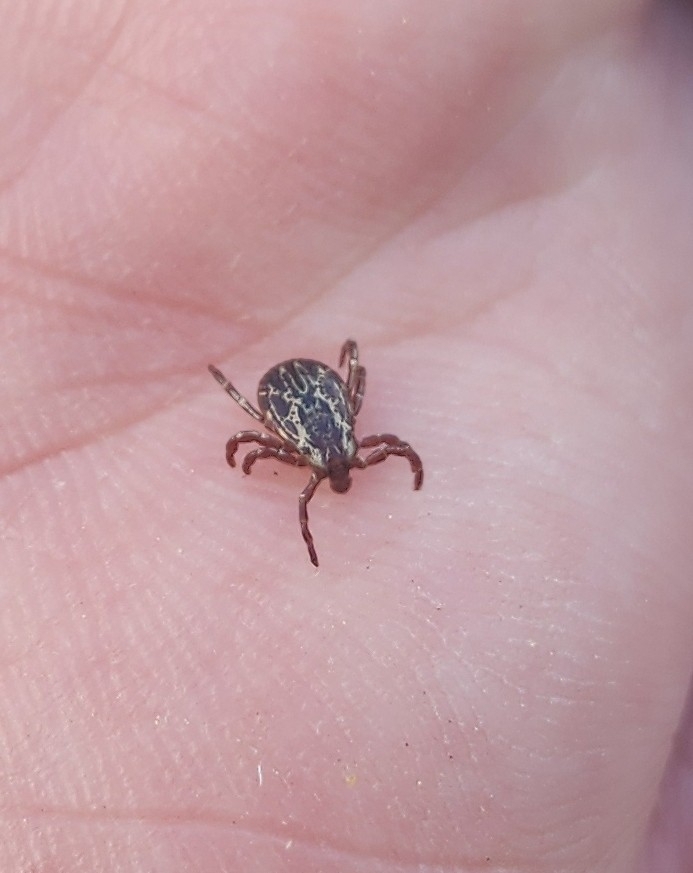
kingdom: Animalia
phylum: Arthropoda
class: Arachnida
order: Ixodida
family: Ixodidae
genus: Dermacentor
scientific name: Dermacentor variabilis
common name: American dog tick
